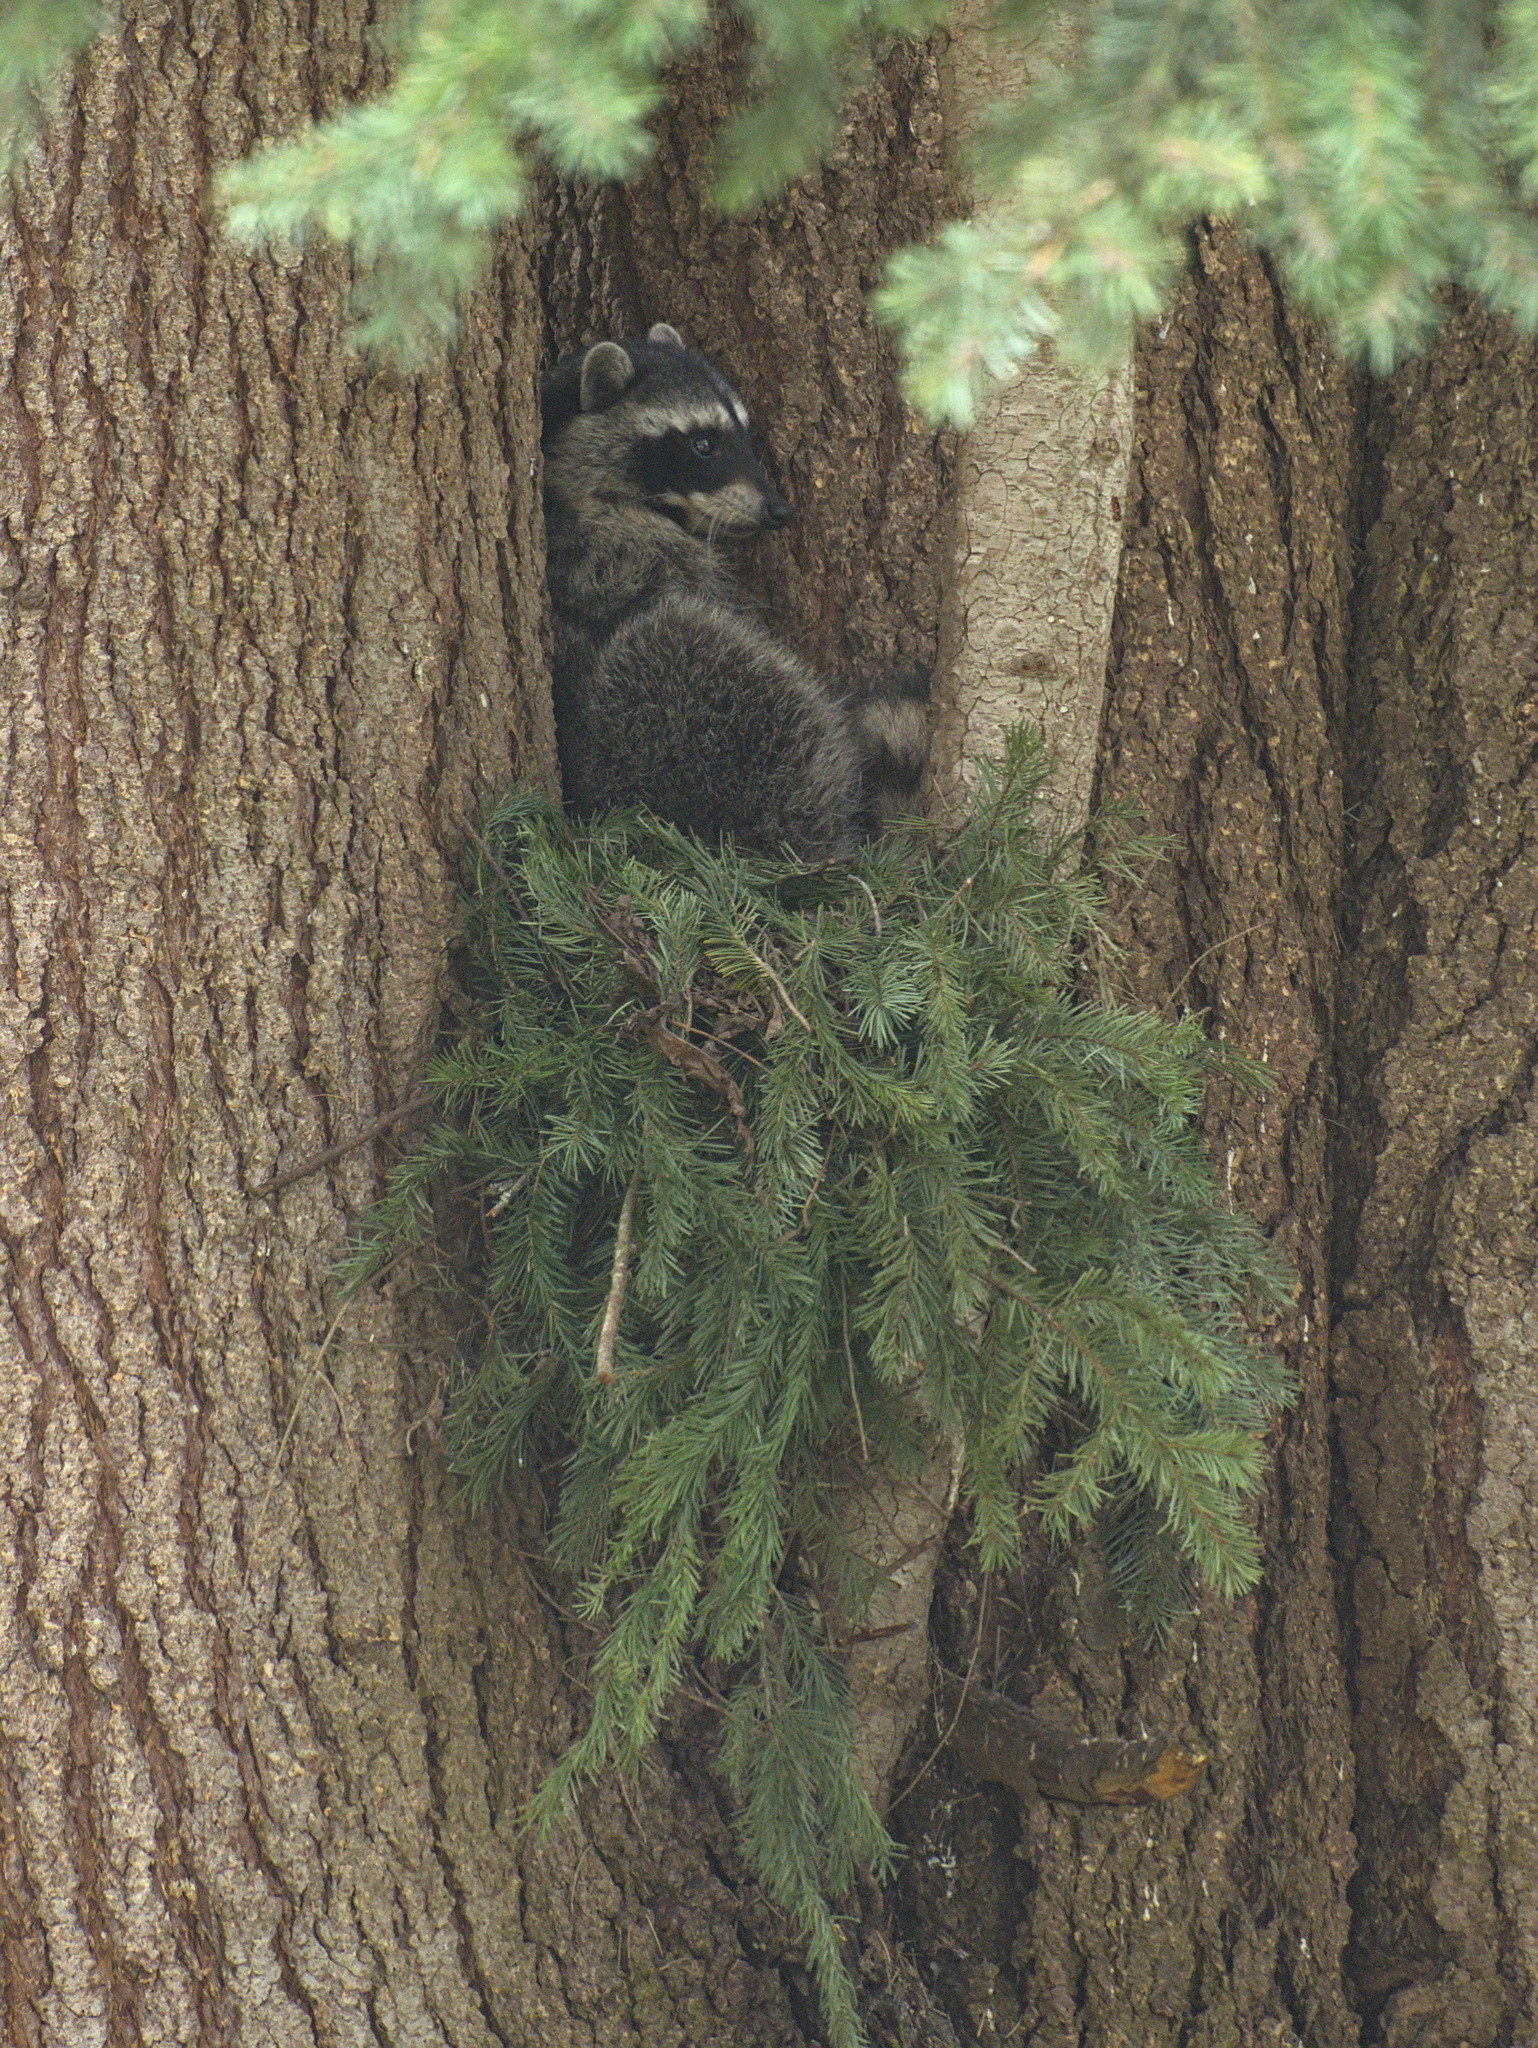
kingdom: Animalia
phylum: Chordata
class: Mammalia
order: Carnivora
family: Procyonidae
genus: Procyon
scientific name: Procyon lotor
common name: Raccoon
